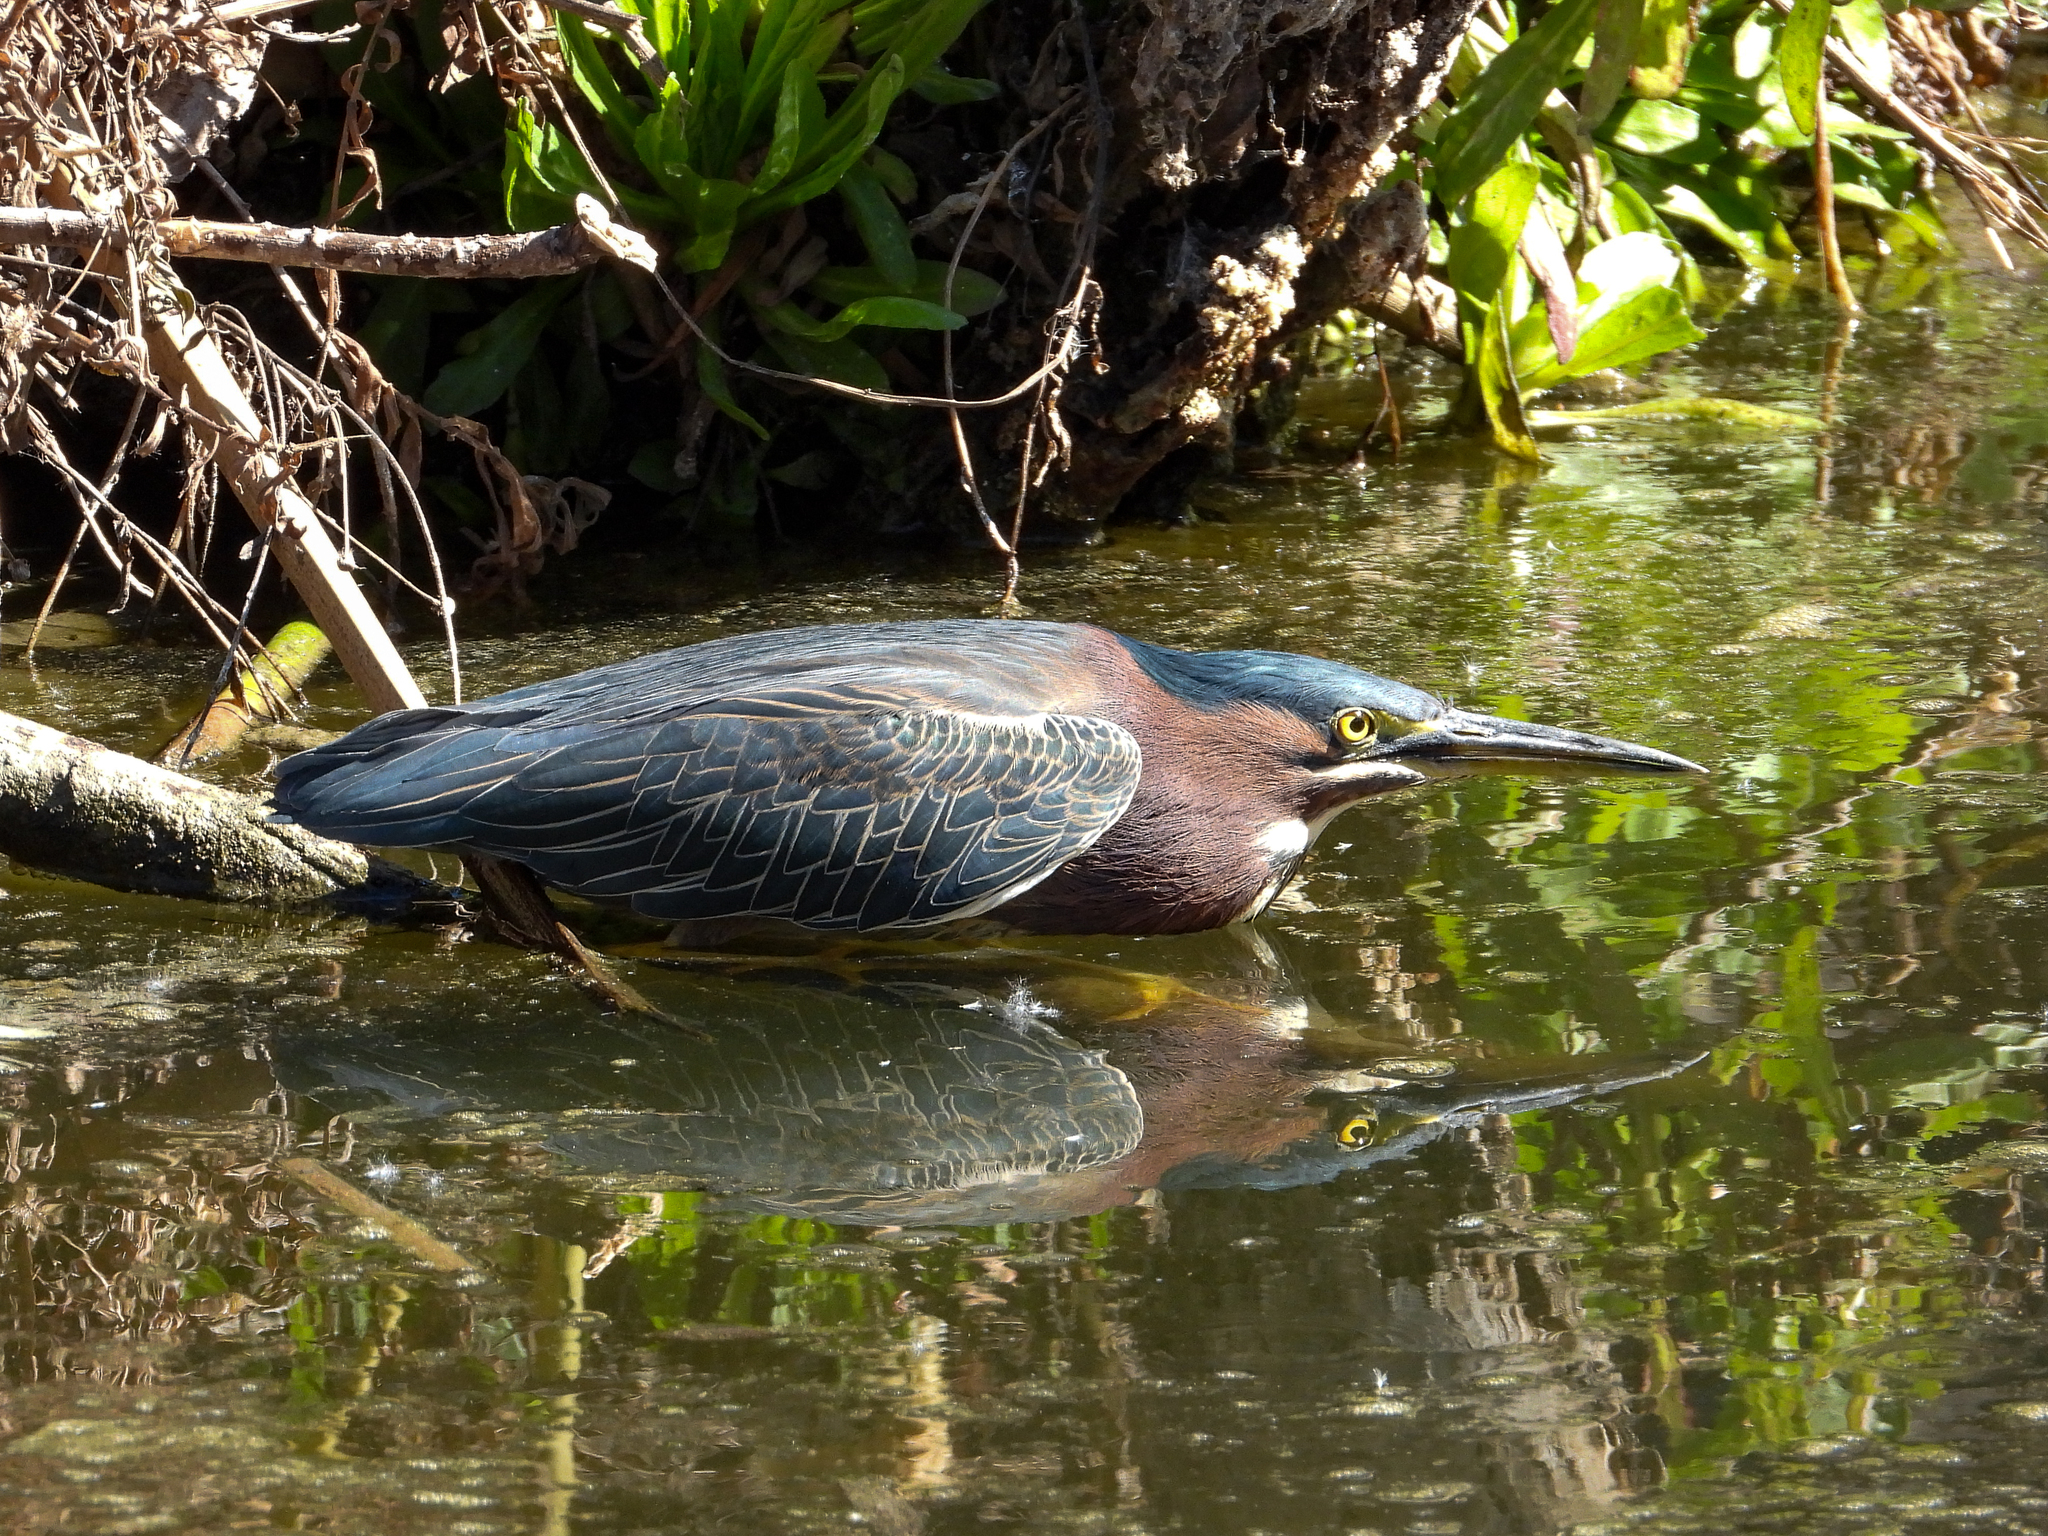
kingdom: Animalia
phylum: Chordata
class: Aves
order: Pelecaniformes
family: Ardeidae
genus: Butorides
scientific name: Butorides virescens
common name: Green heron
